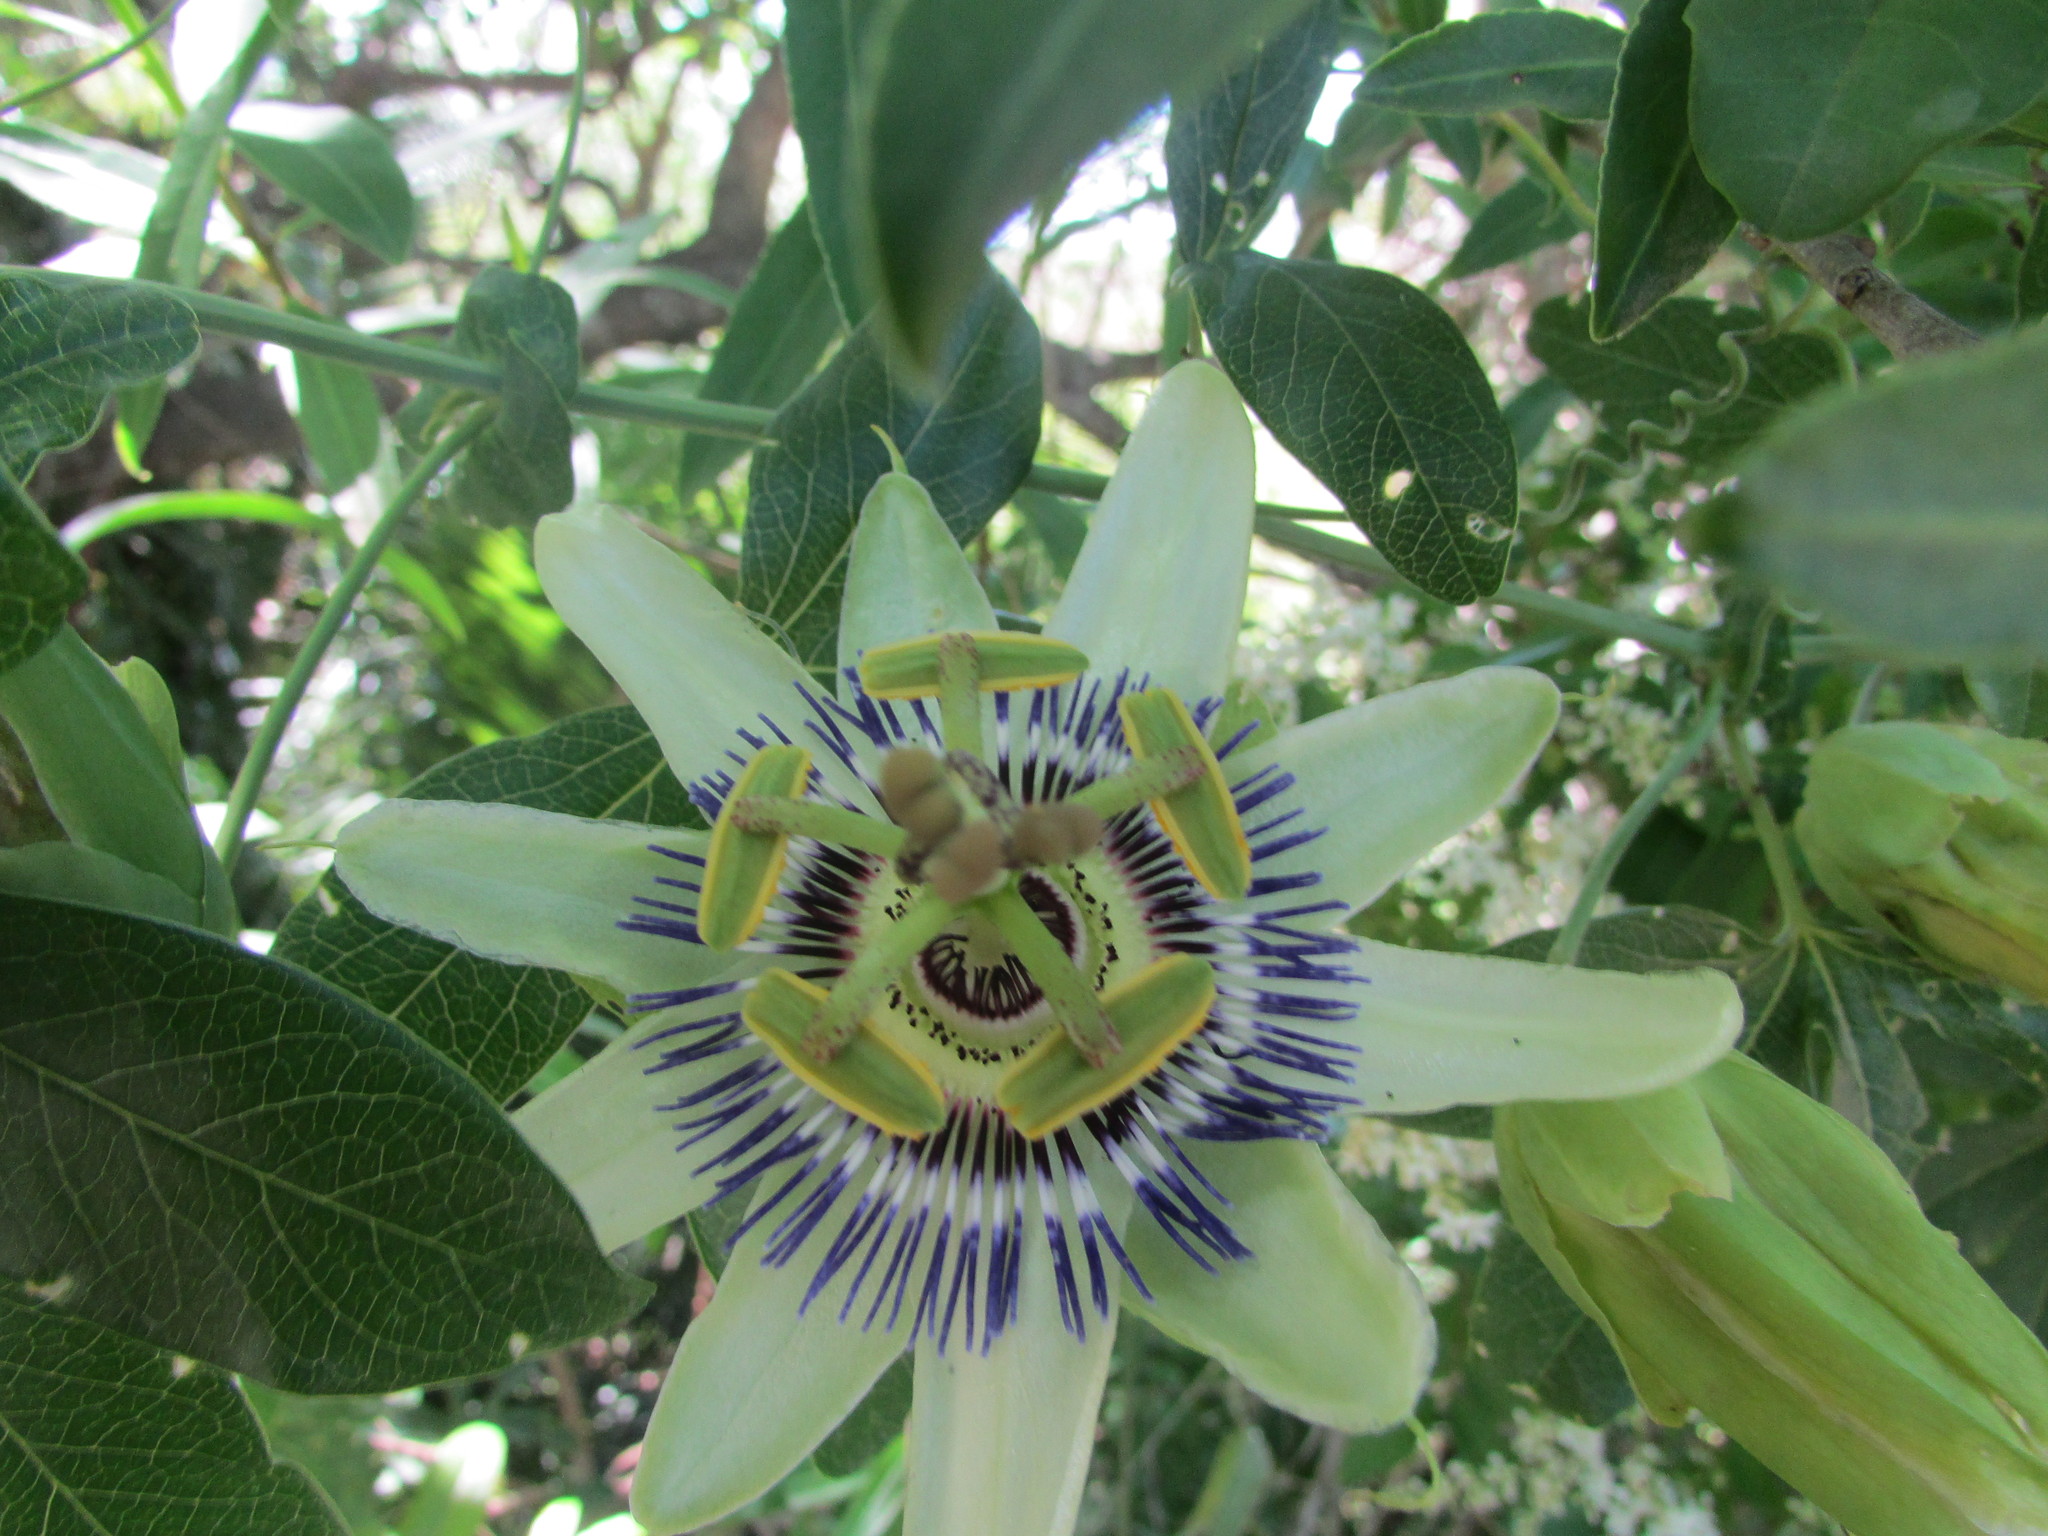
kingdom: Plantae
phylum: Tracheophyta
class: Magnoliopsida
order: Malpighiales
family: Passifloraceae
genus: Passiflora
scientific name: Passiflora caerulea
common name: Blue passionflower
